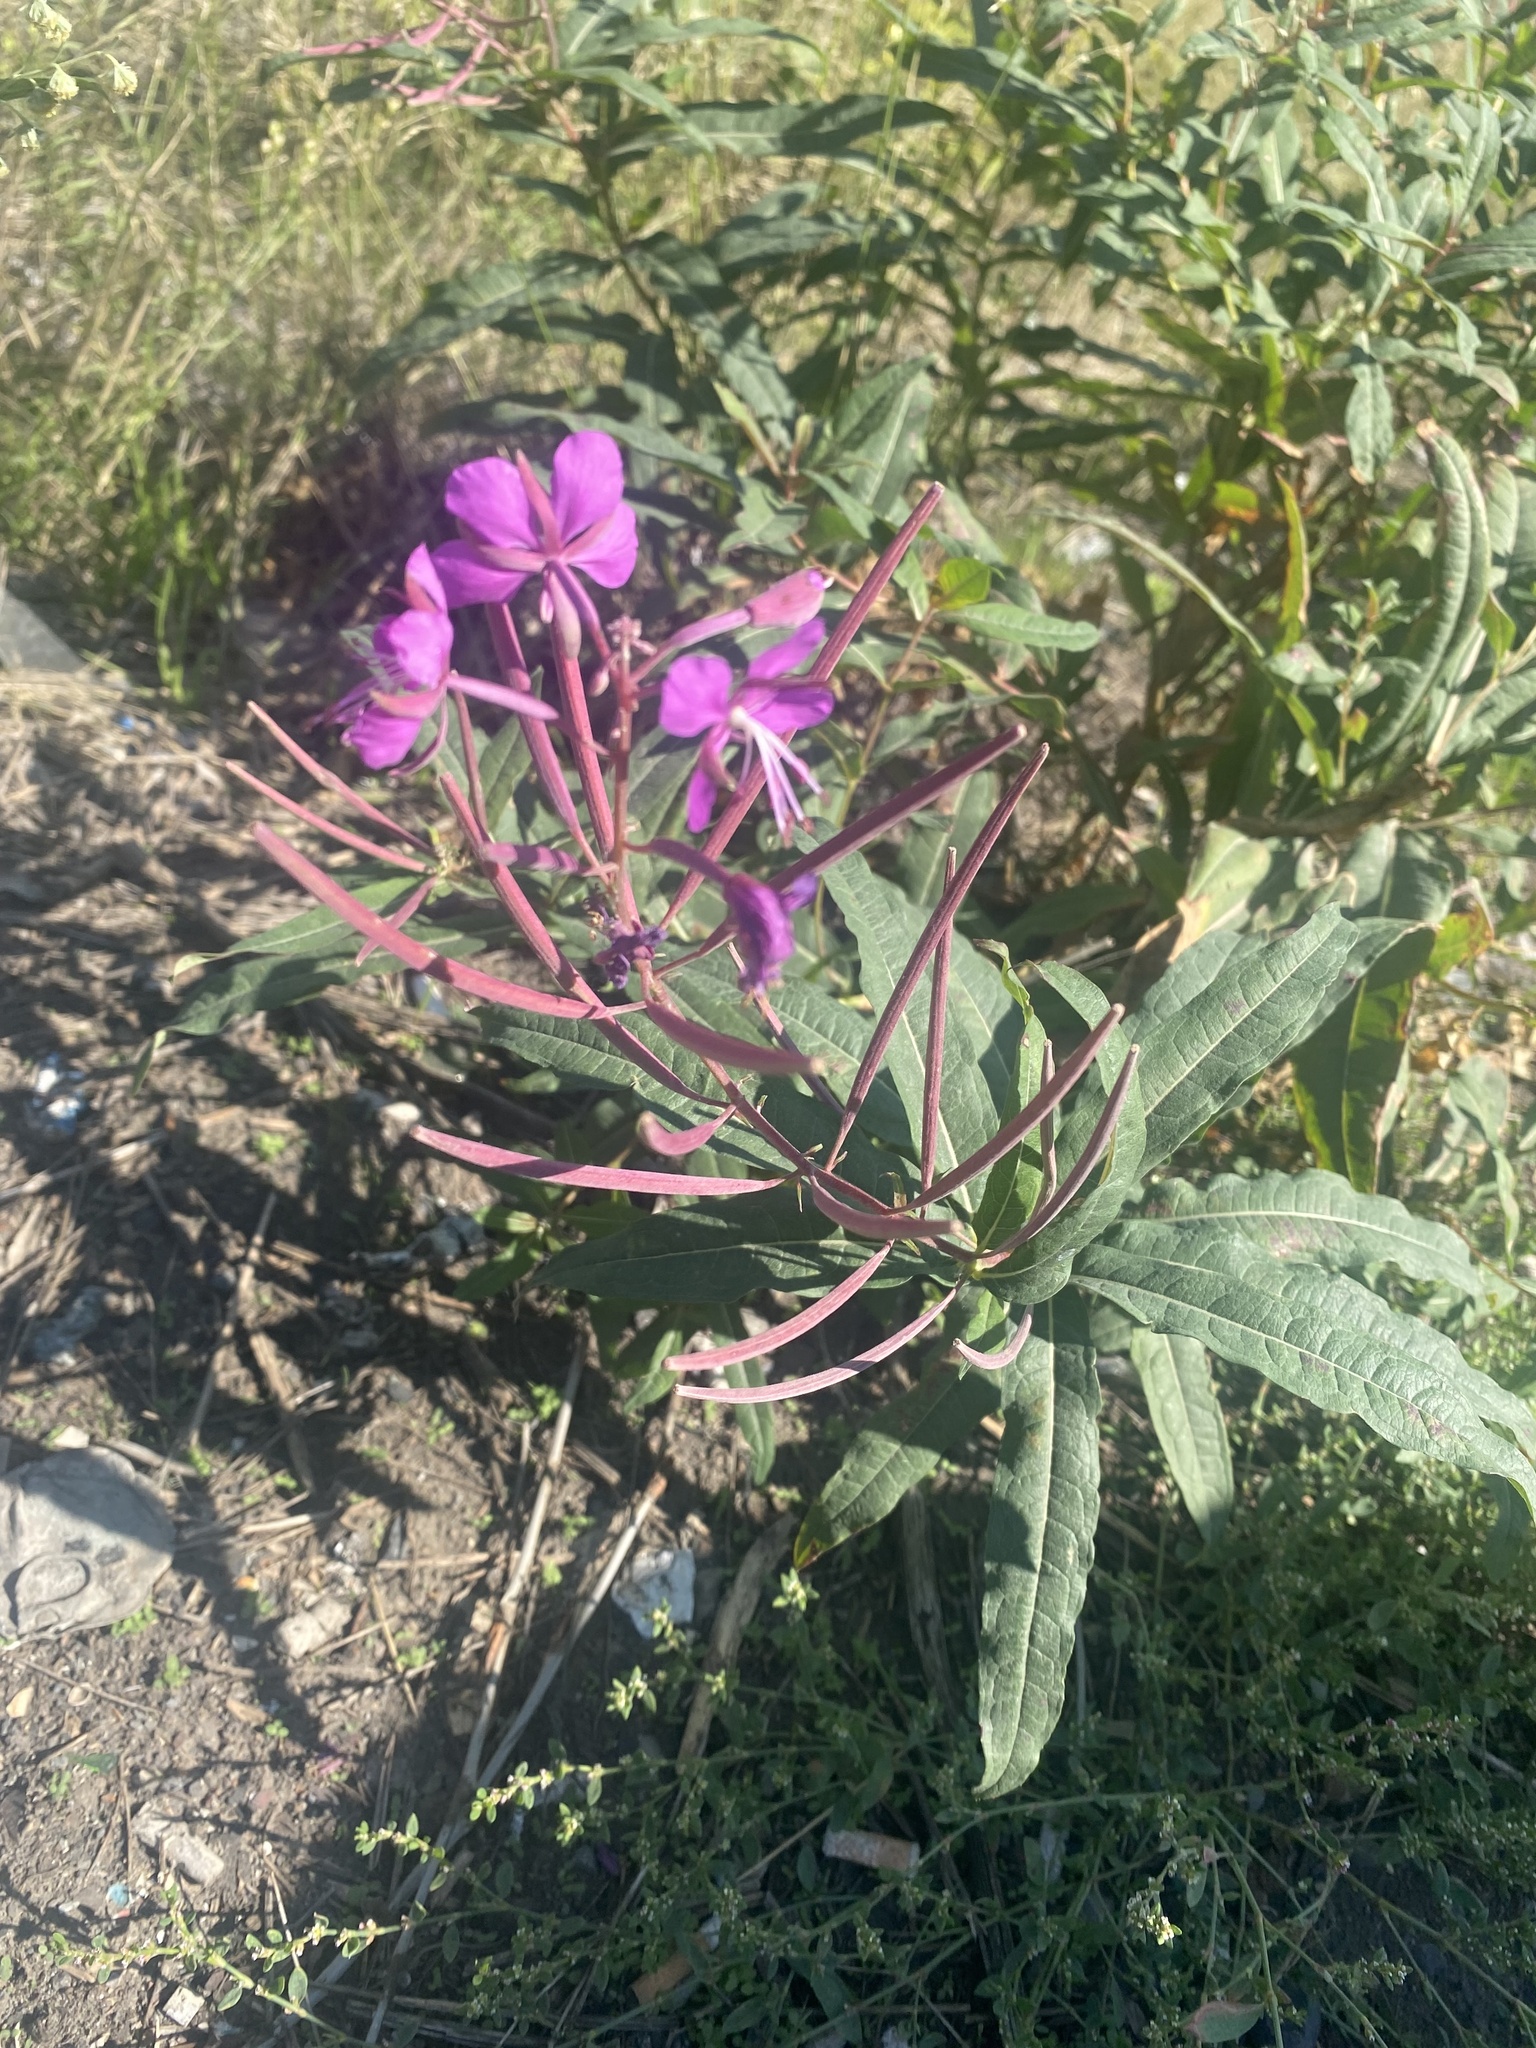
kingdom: Plantae
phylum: Tracheophyta
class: Magnoliopsida
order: Myrtales
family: Onagraceae
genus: Chamaenerion
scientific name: Chamaenerion angustifolium
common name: Fireweed
